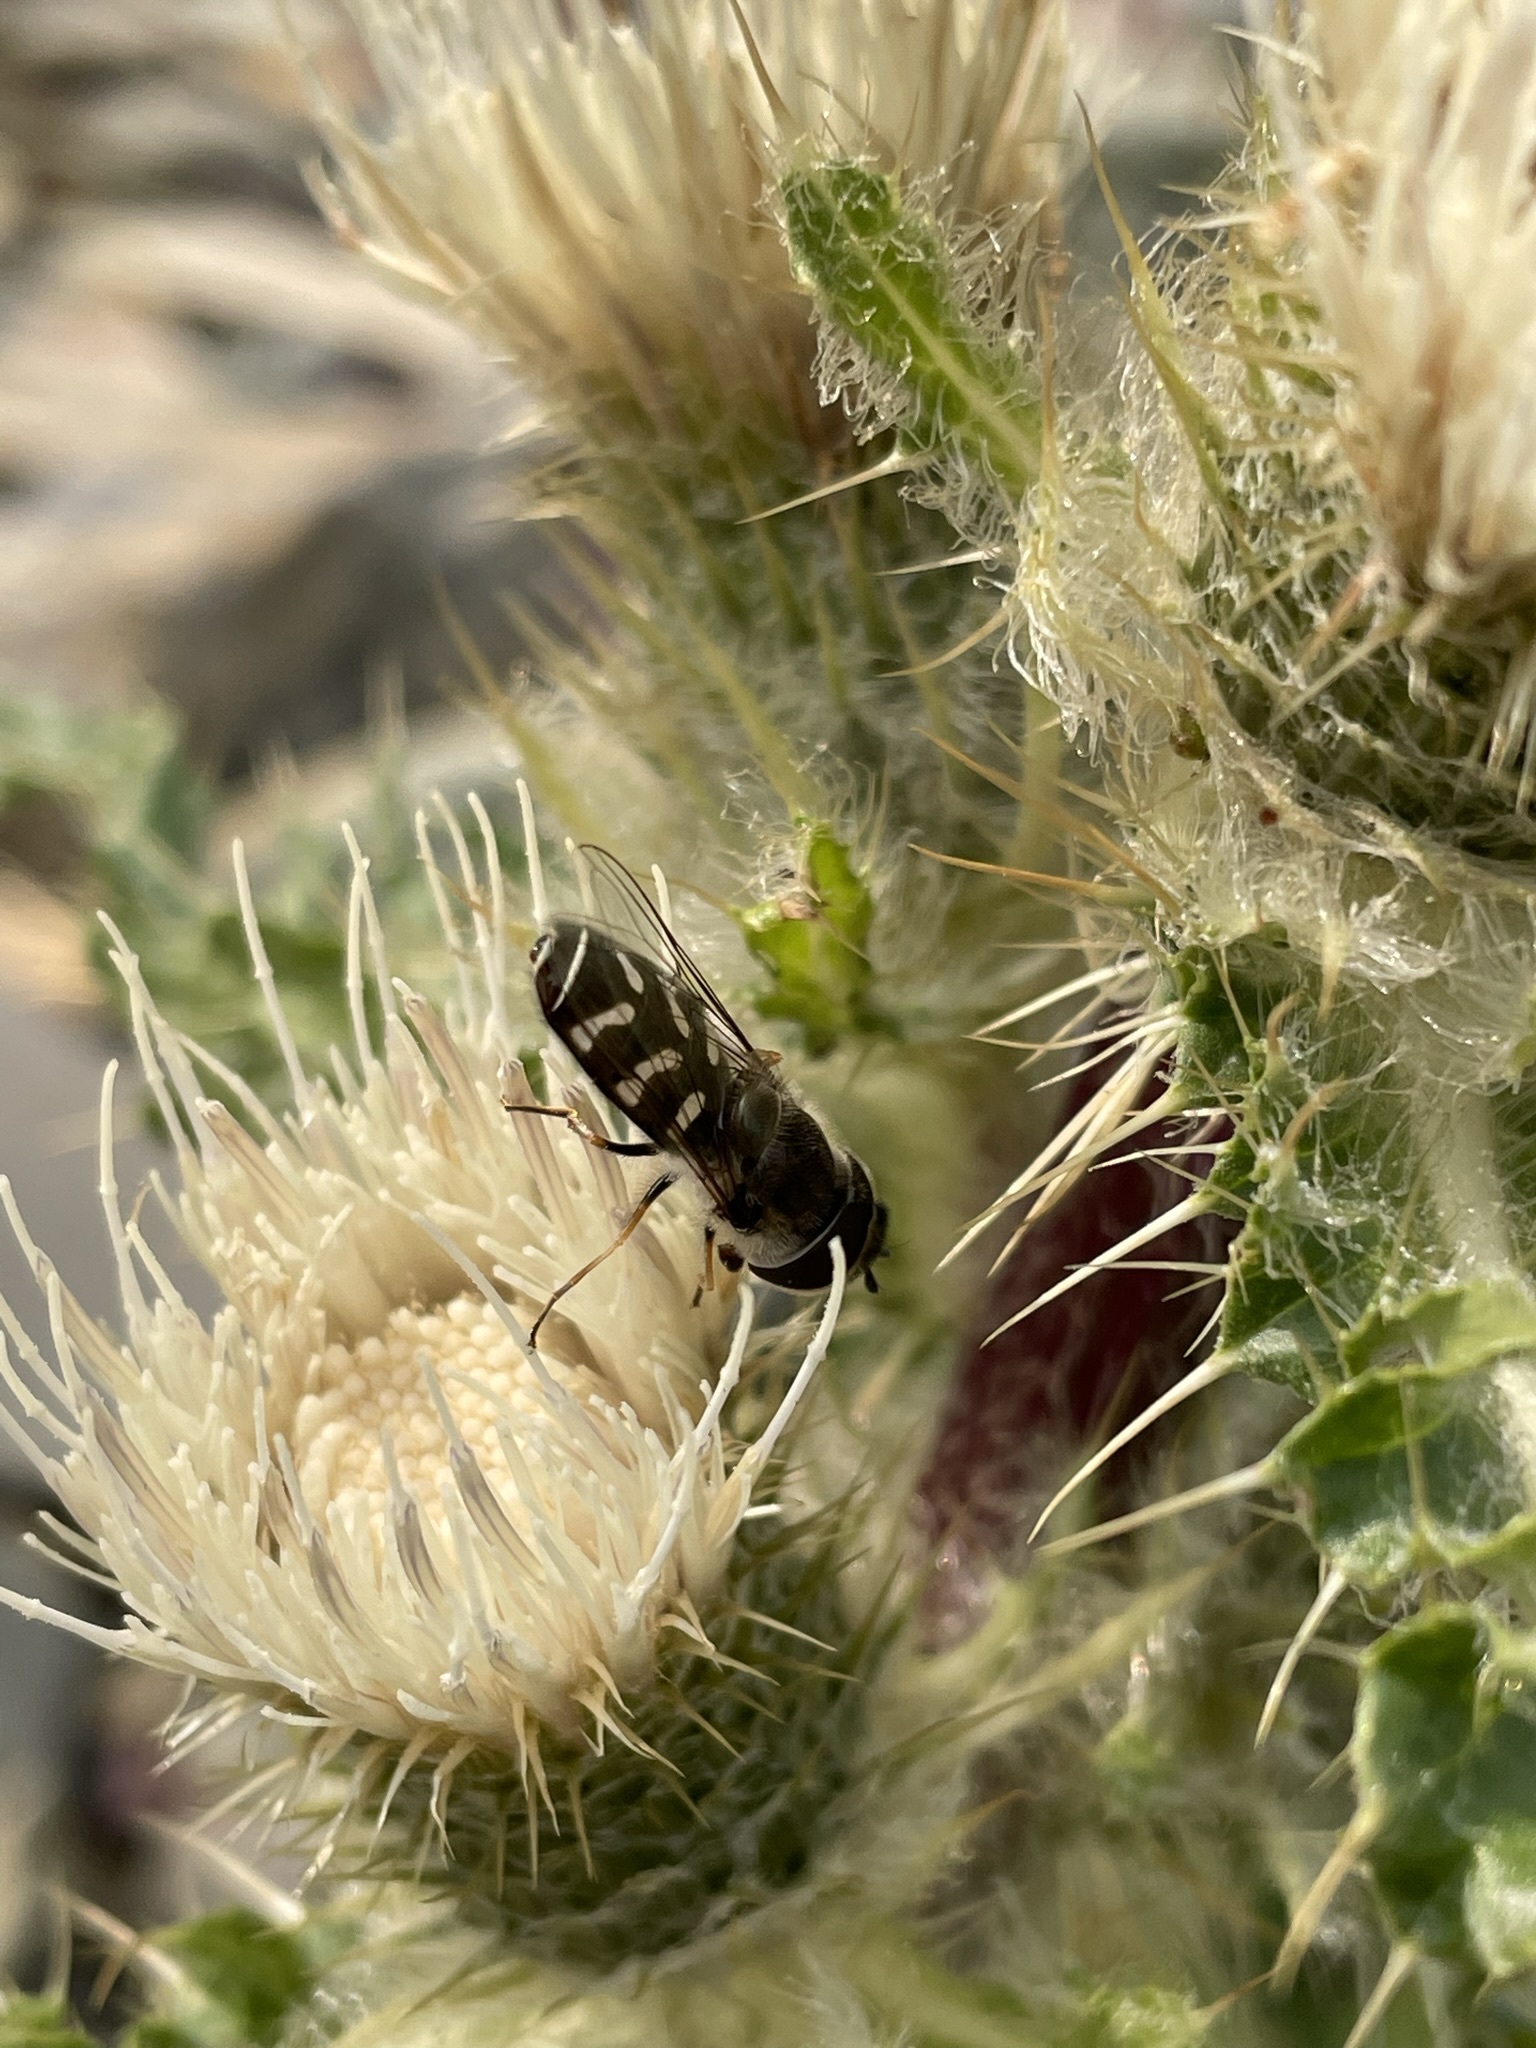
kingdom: Animalia
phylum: Arthropoda
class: Insecta
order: Diptera
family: Syrphidae
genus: Scaeva
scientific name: Scaeva affinis
